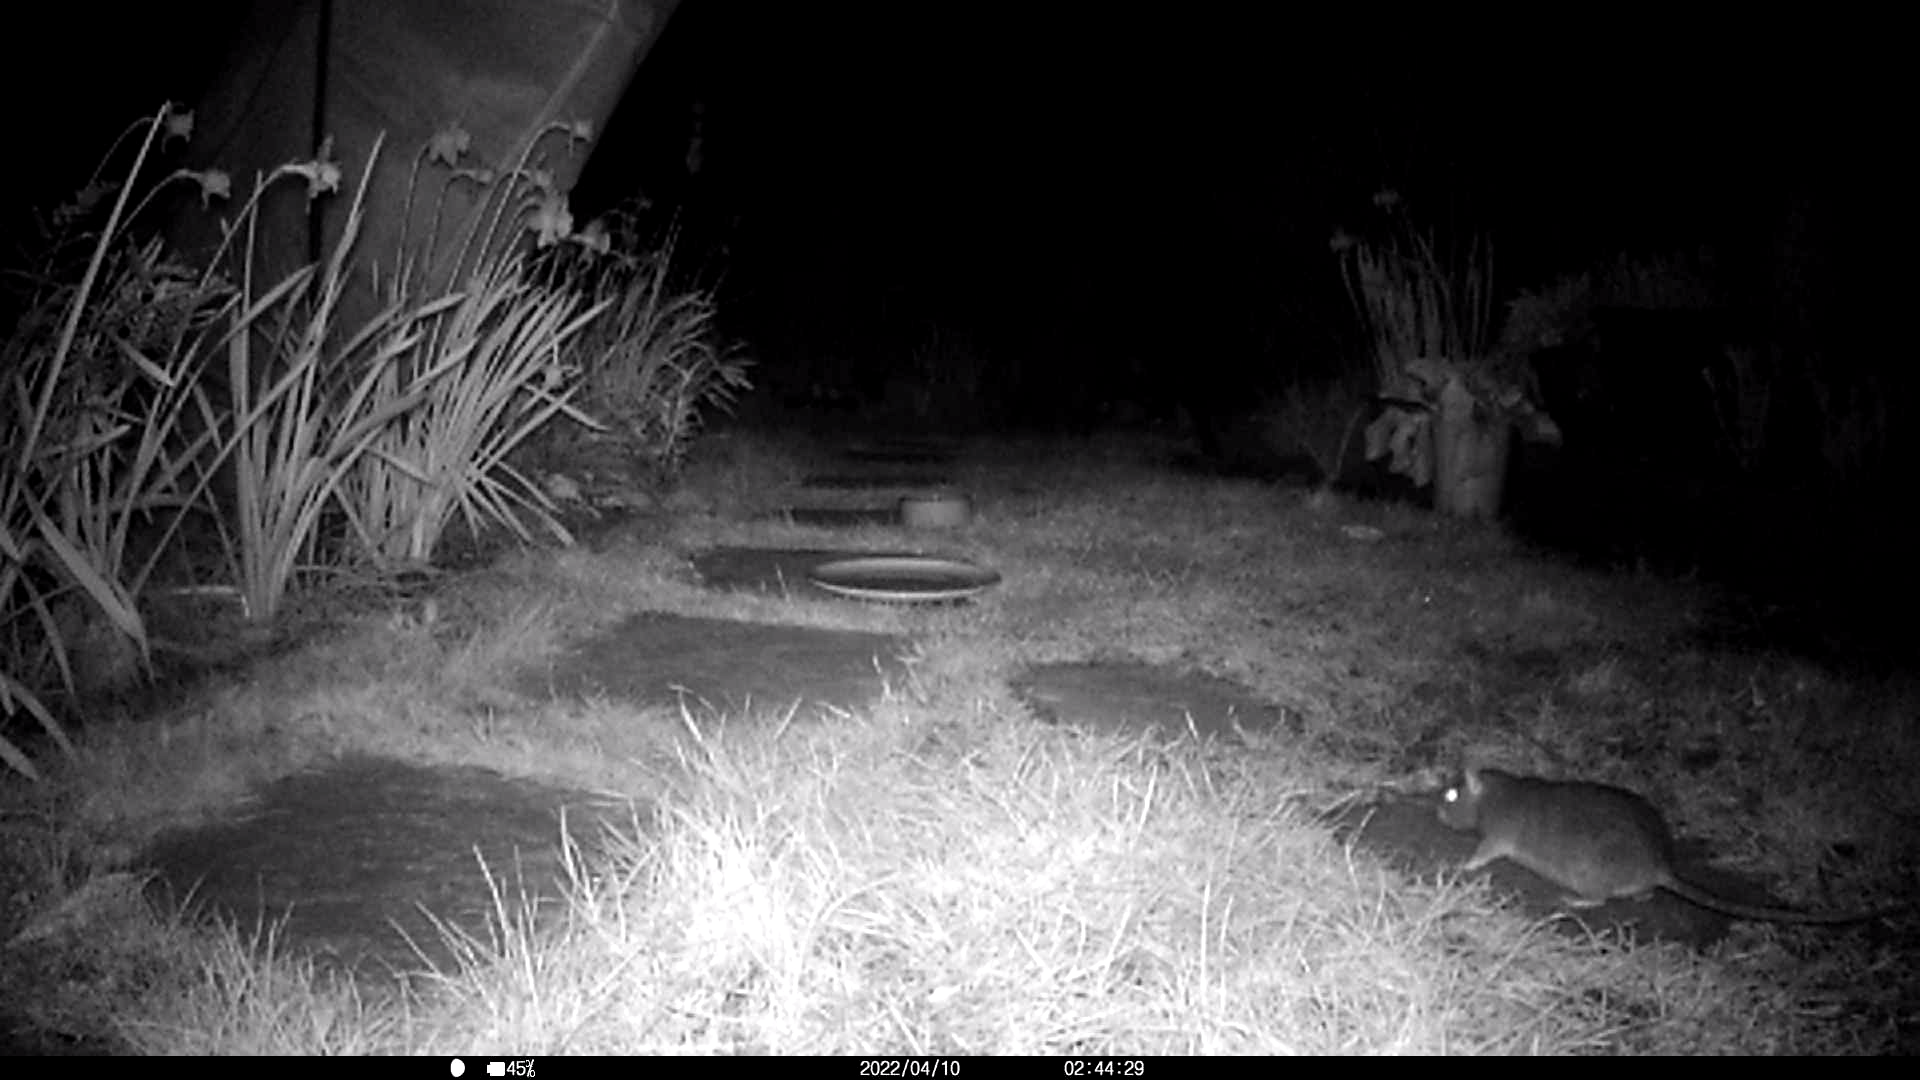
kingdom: Animalia
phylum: Chordata
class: Mammalia
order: Rodentia
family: Muridae
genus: Rattus
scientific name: Rattus norvegicus
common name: Brown rat
